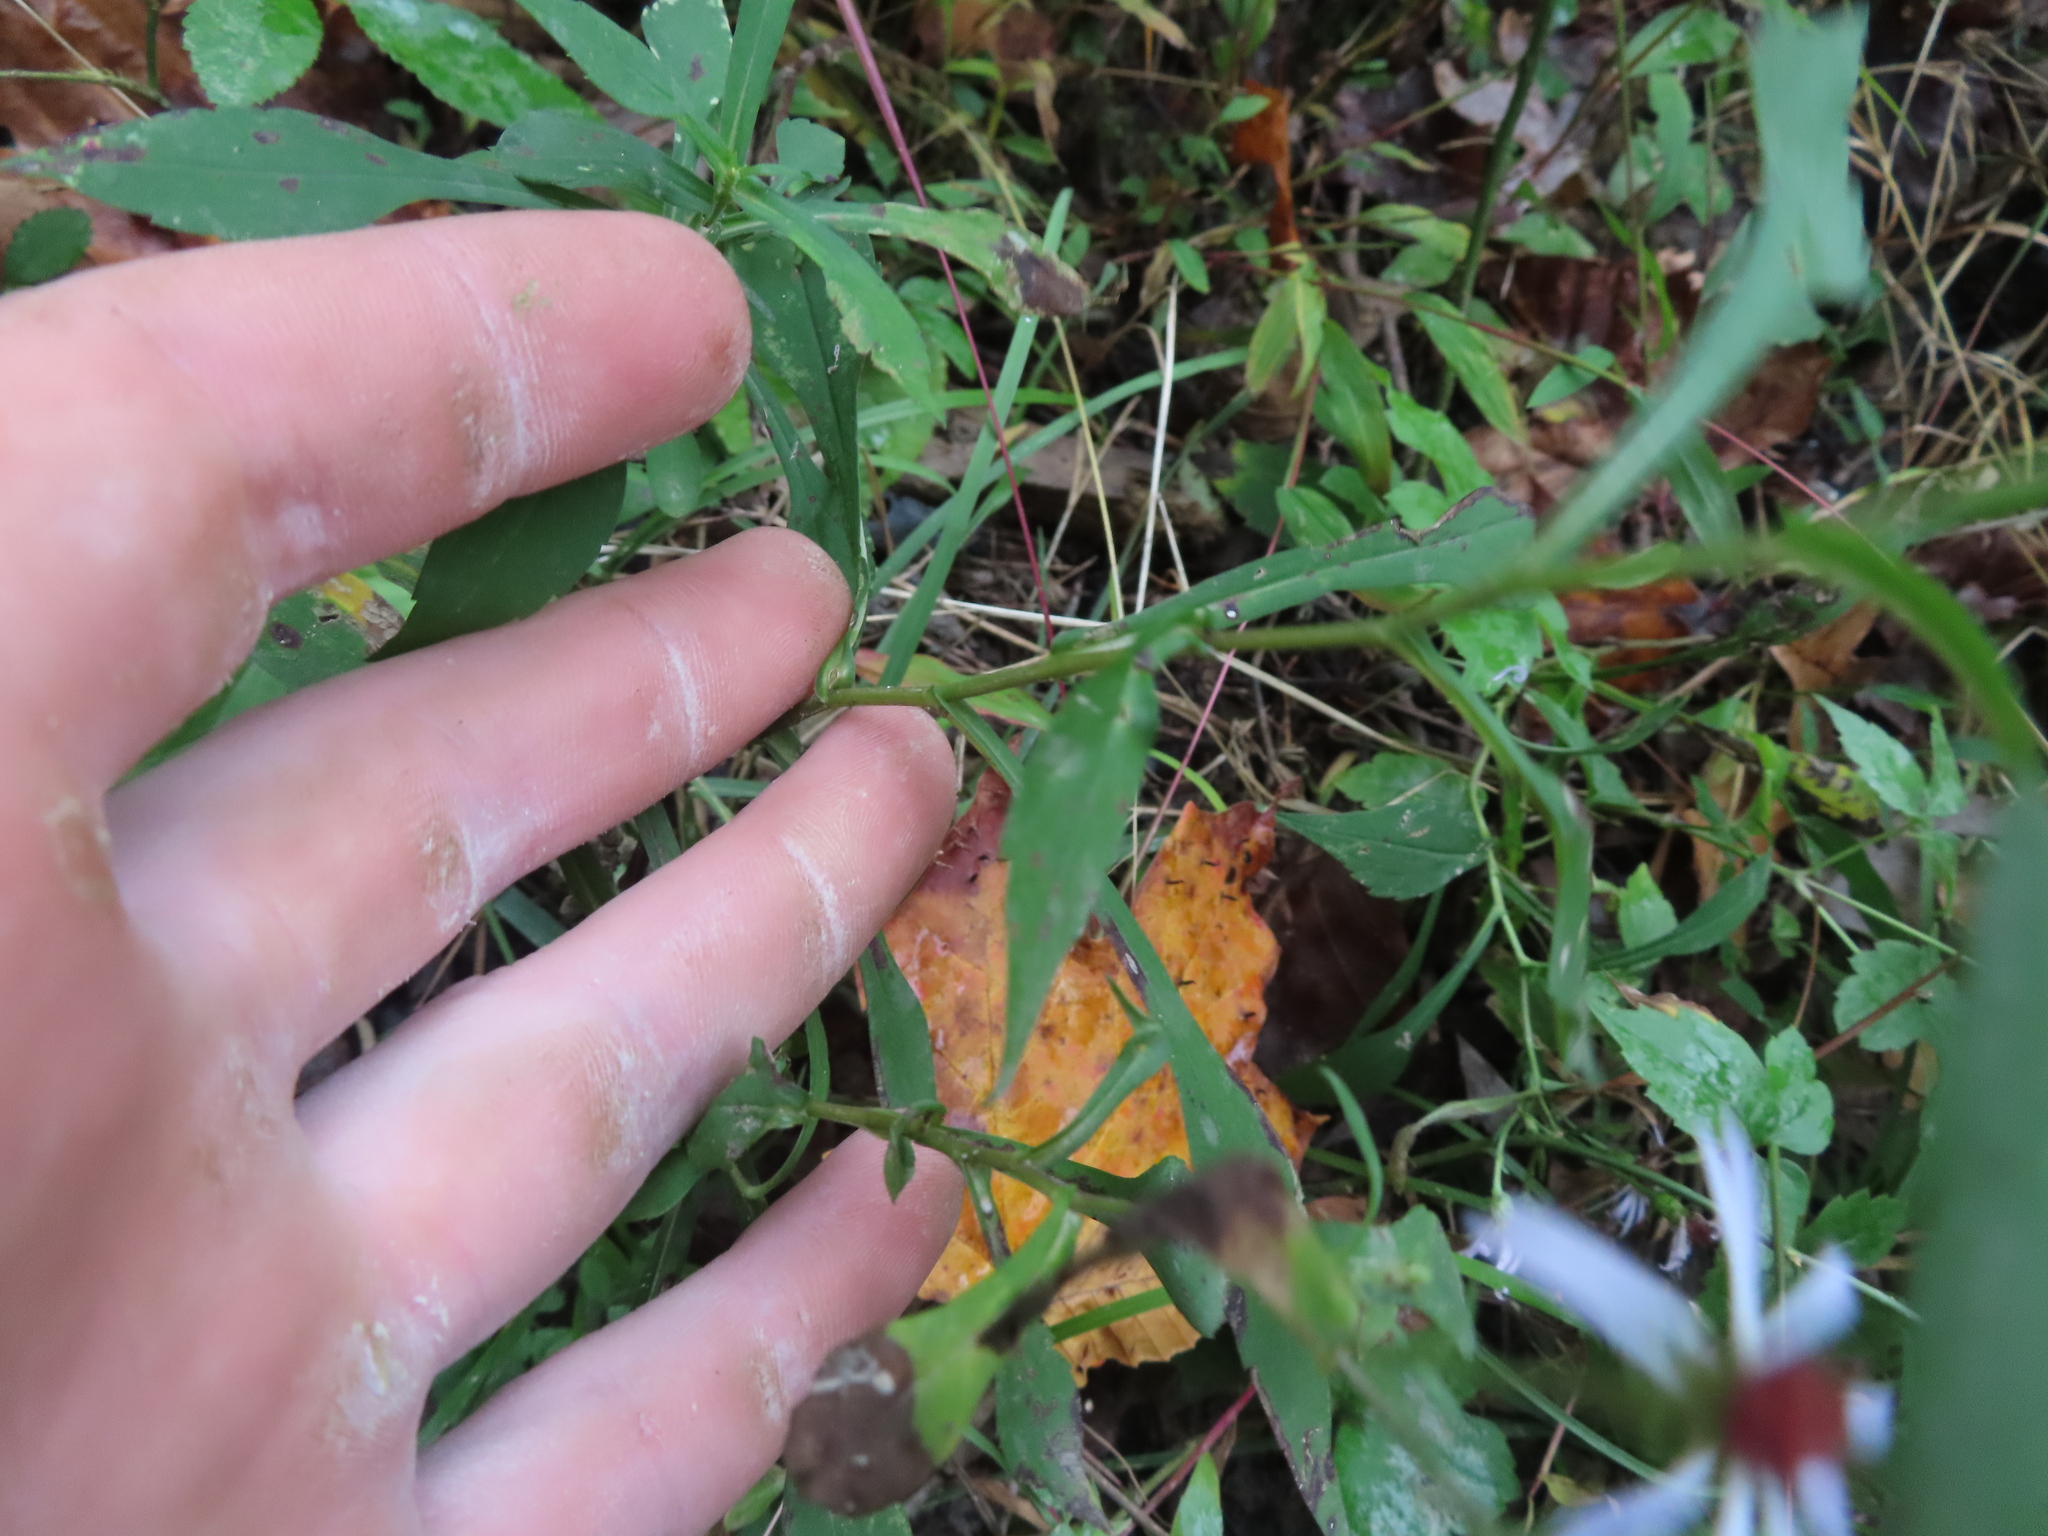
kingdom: Plantae
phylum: Tracheophyta
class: Magnoliopsida
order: Asterales
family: Asteraceae
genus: Symphyotrichum
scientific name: Symphyotrichum prenanthoides
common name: Crooked-stem aster
